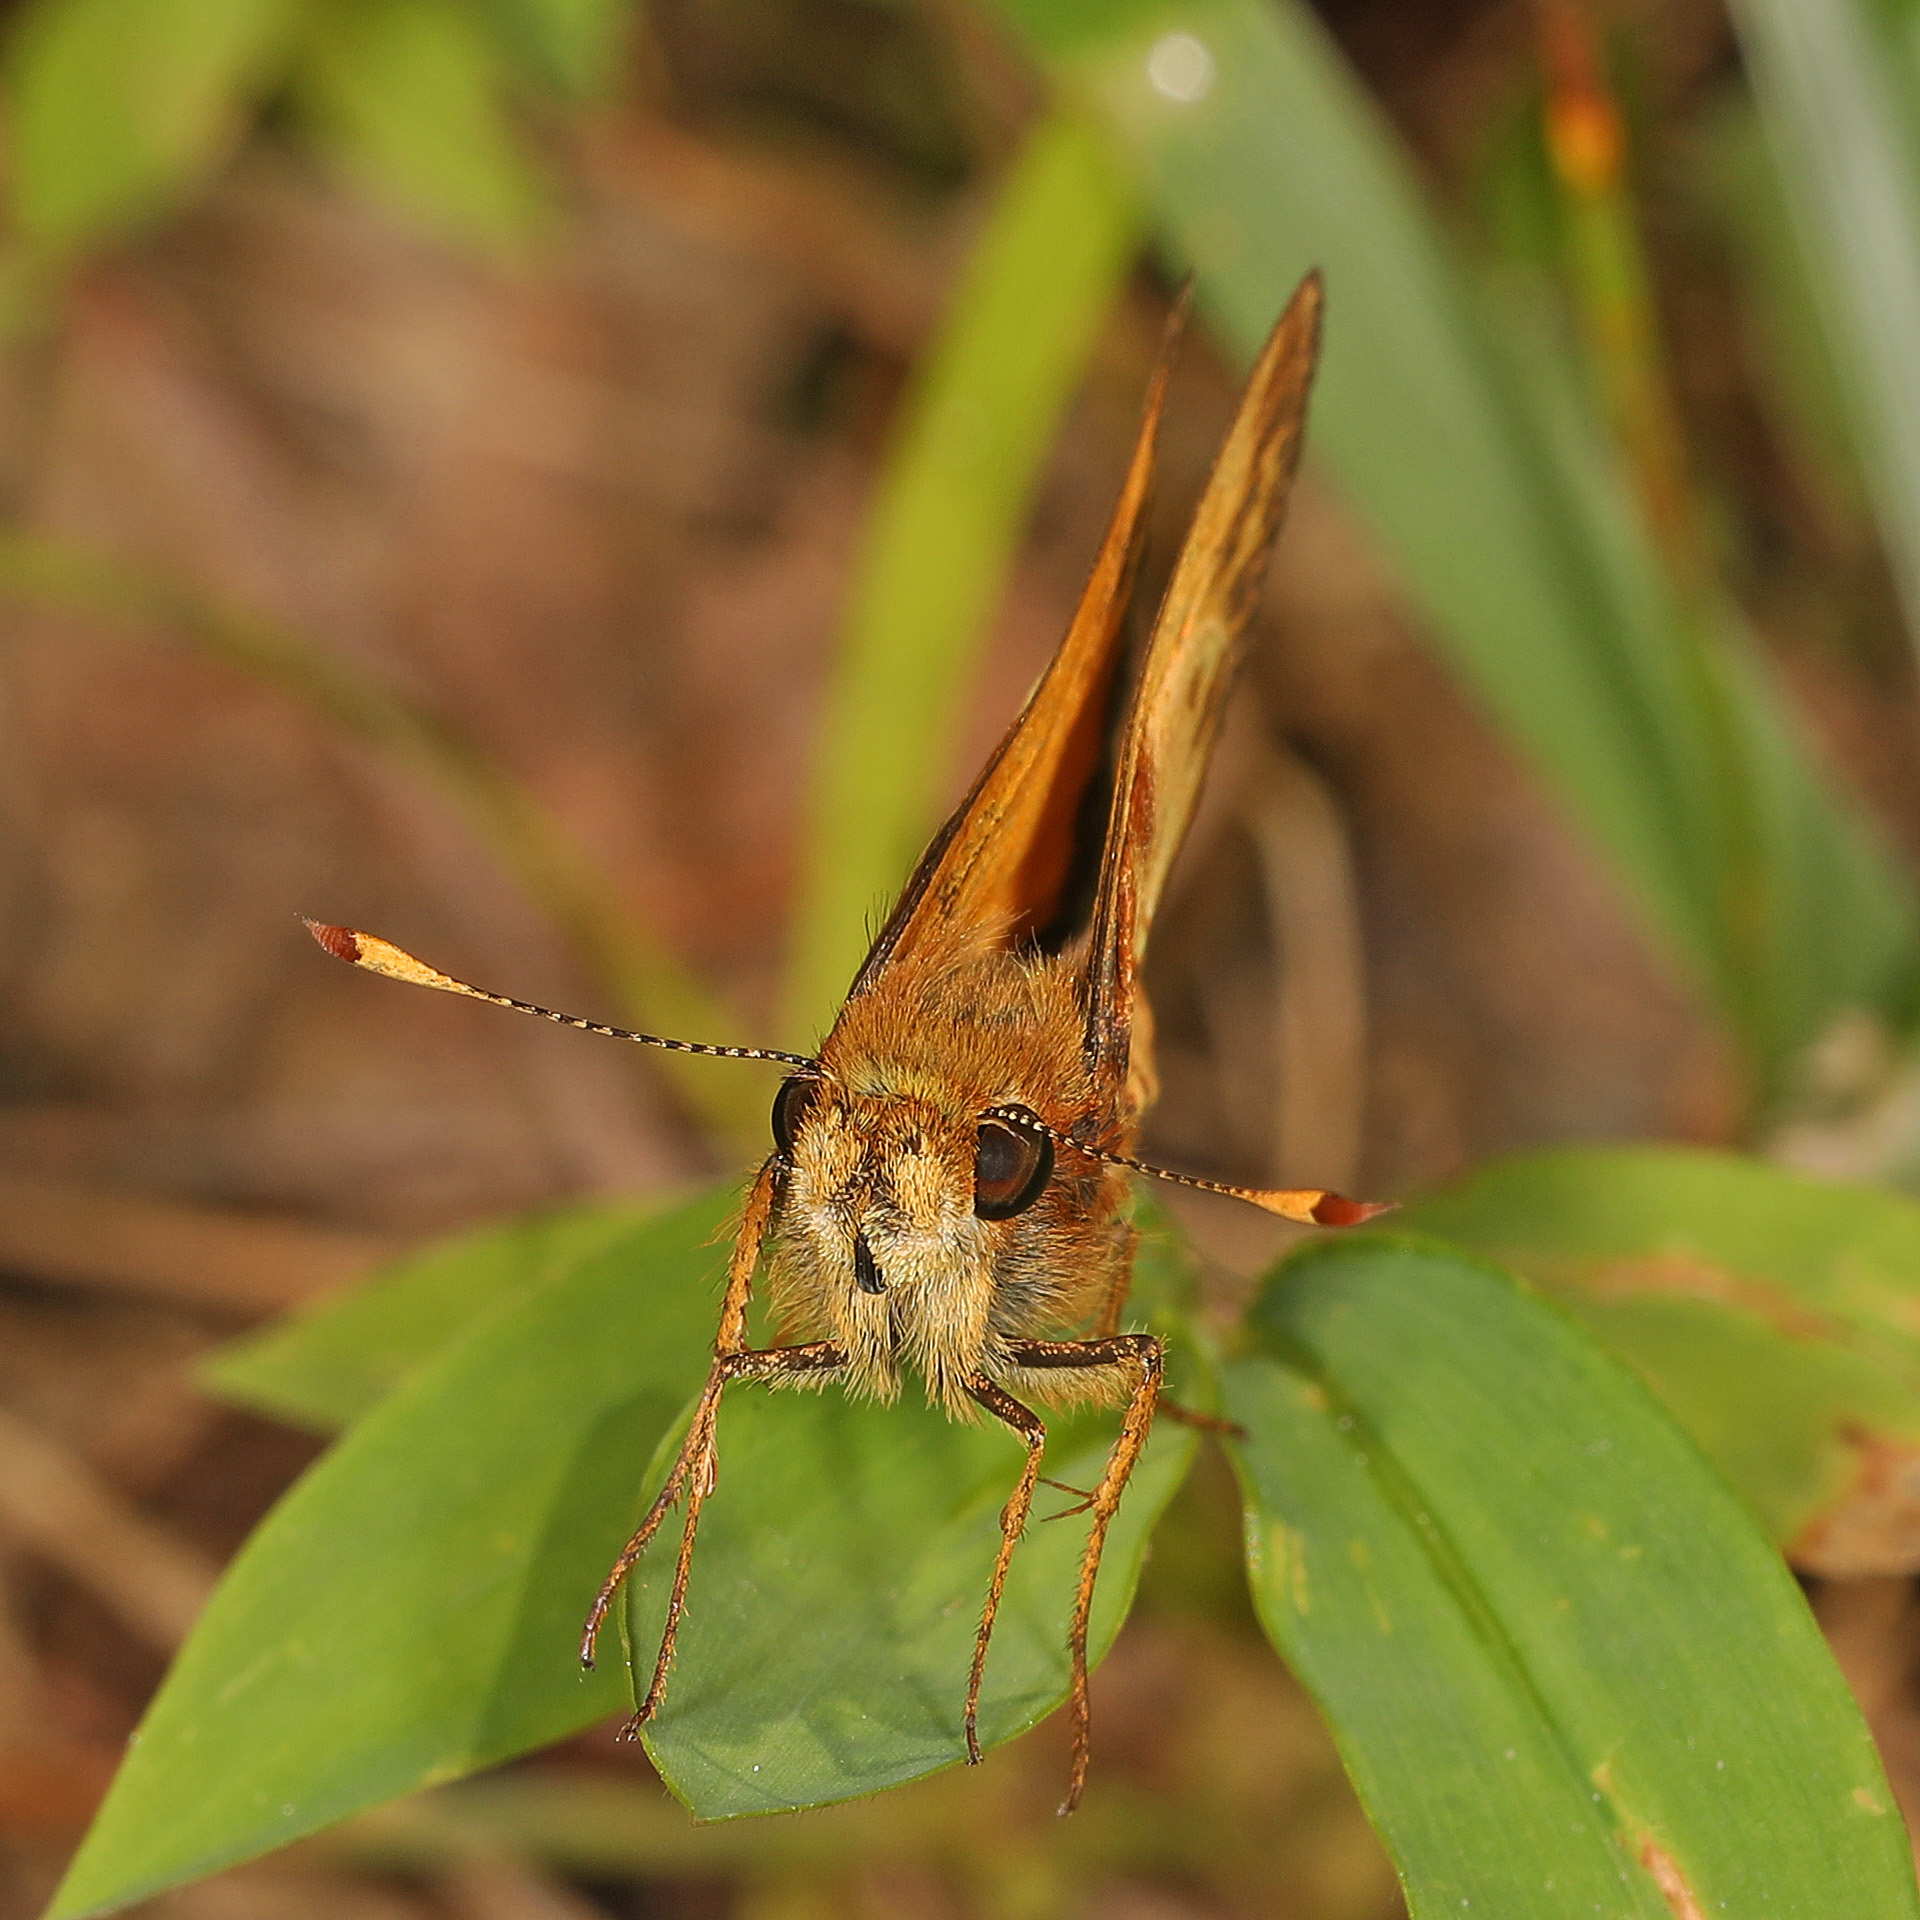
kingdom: Animalia
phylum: Arthropoda
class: Insecta
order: Lepidoptera
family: Hesperiidae
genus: Lon
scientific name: Lon zabulon
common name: Zabulon skipper
